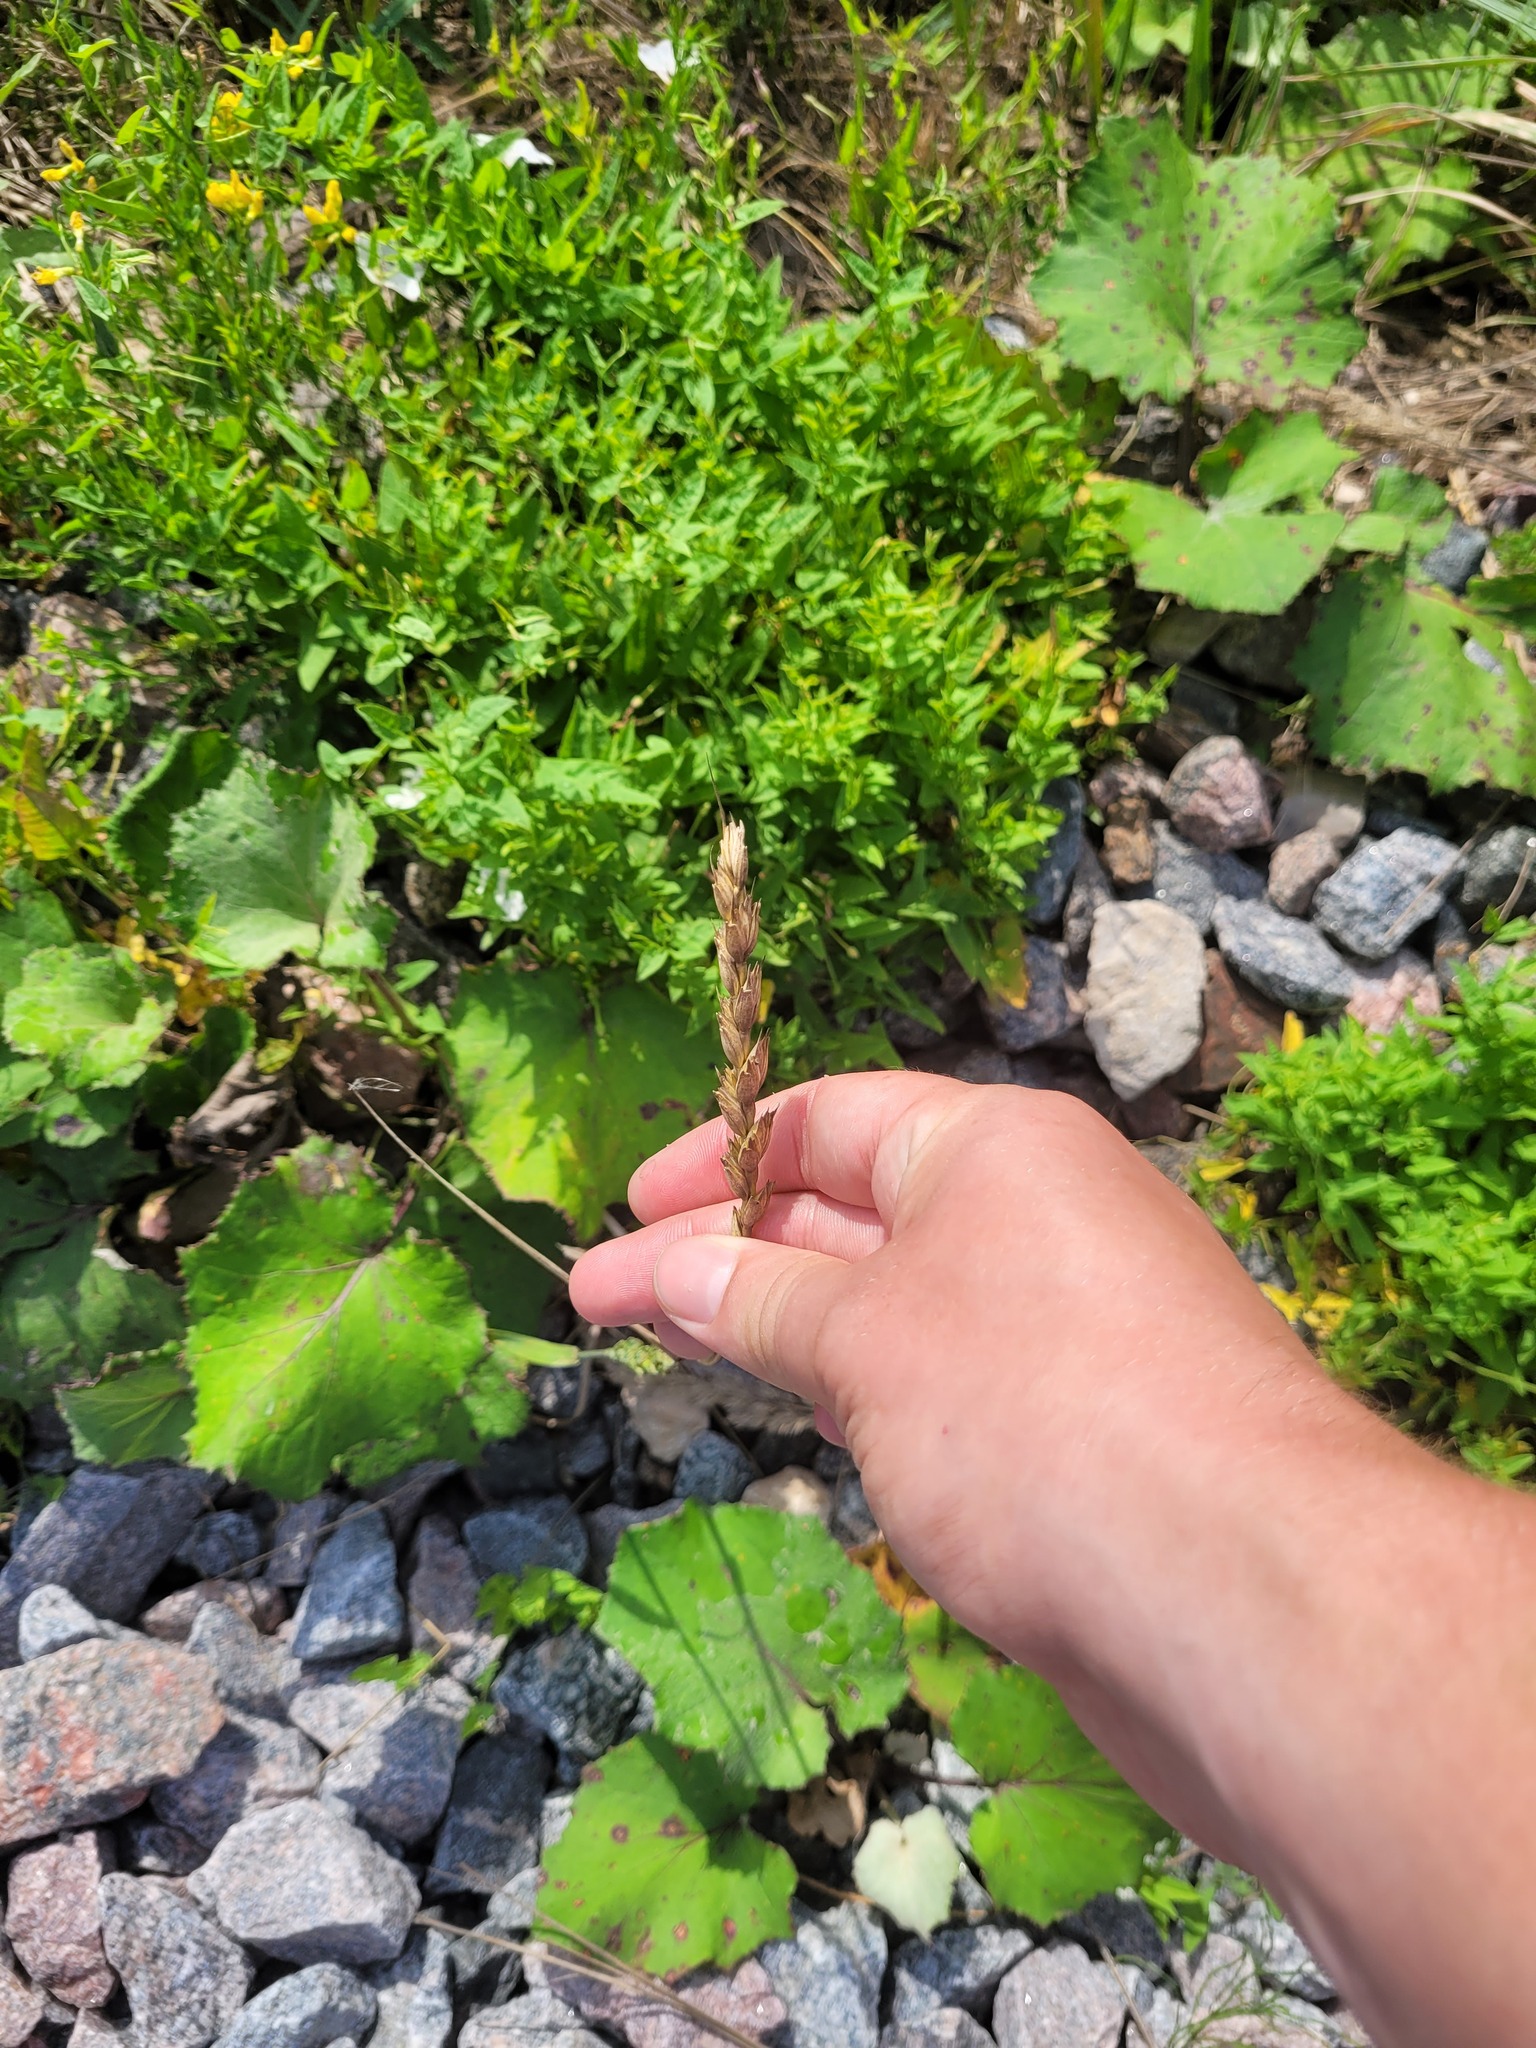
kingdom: Plantae
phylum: Tracheophyta
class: Liliopsida
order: Poales
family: Poaceae
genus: Triticum
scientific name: Triticum aestivum
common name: Common wheat
